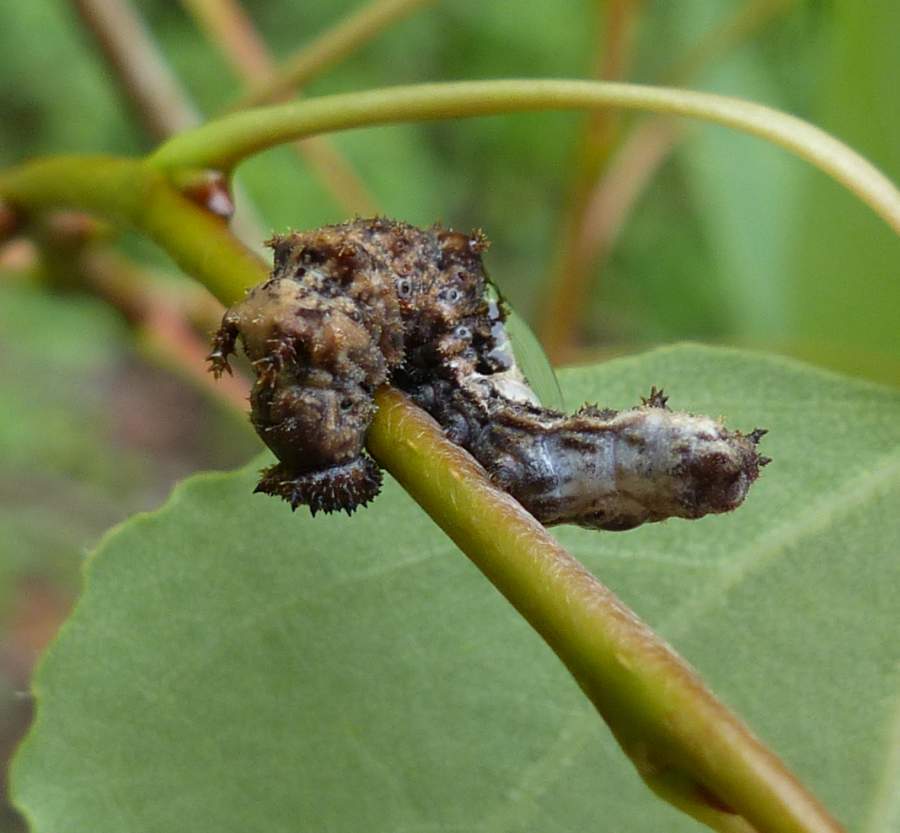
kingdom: Animalia
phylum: Arthropoda
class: Insecta
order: Lepidoptera
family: Nymphalidae
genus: Limenitis
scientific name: Limenitis
